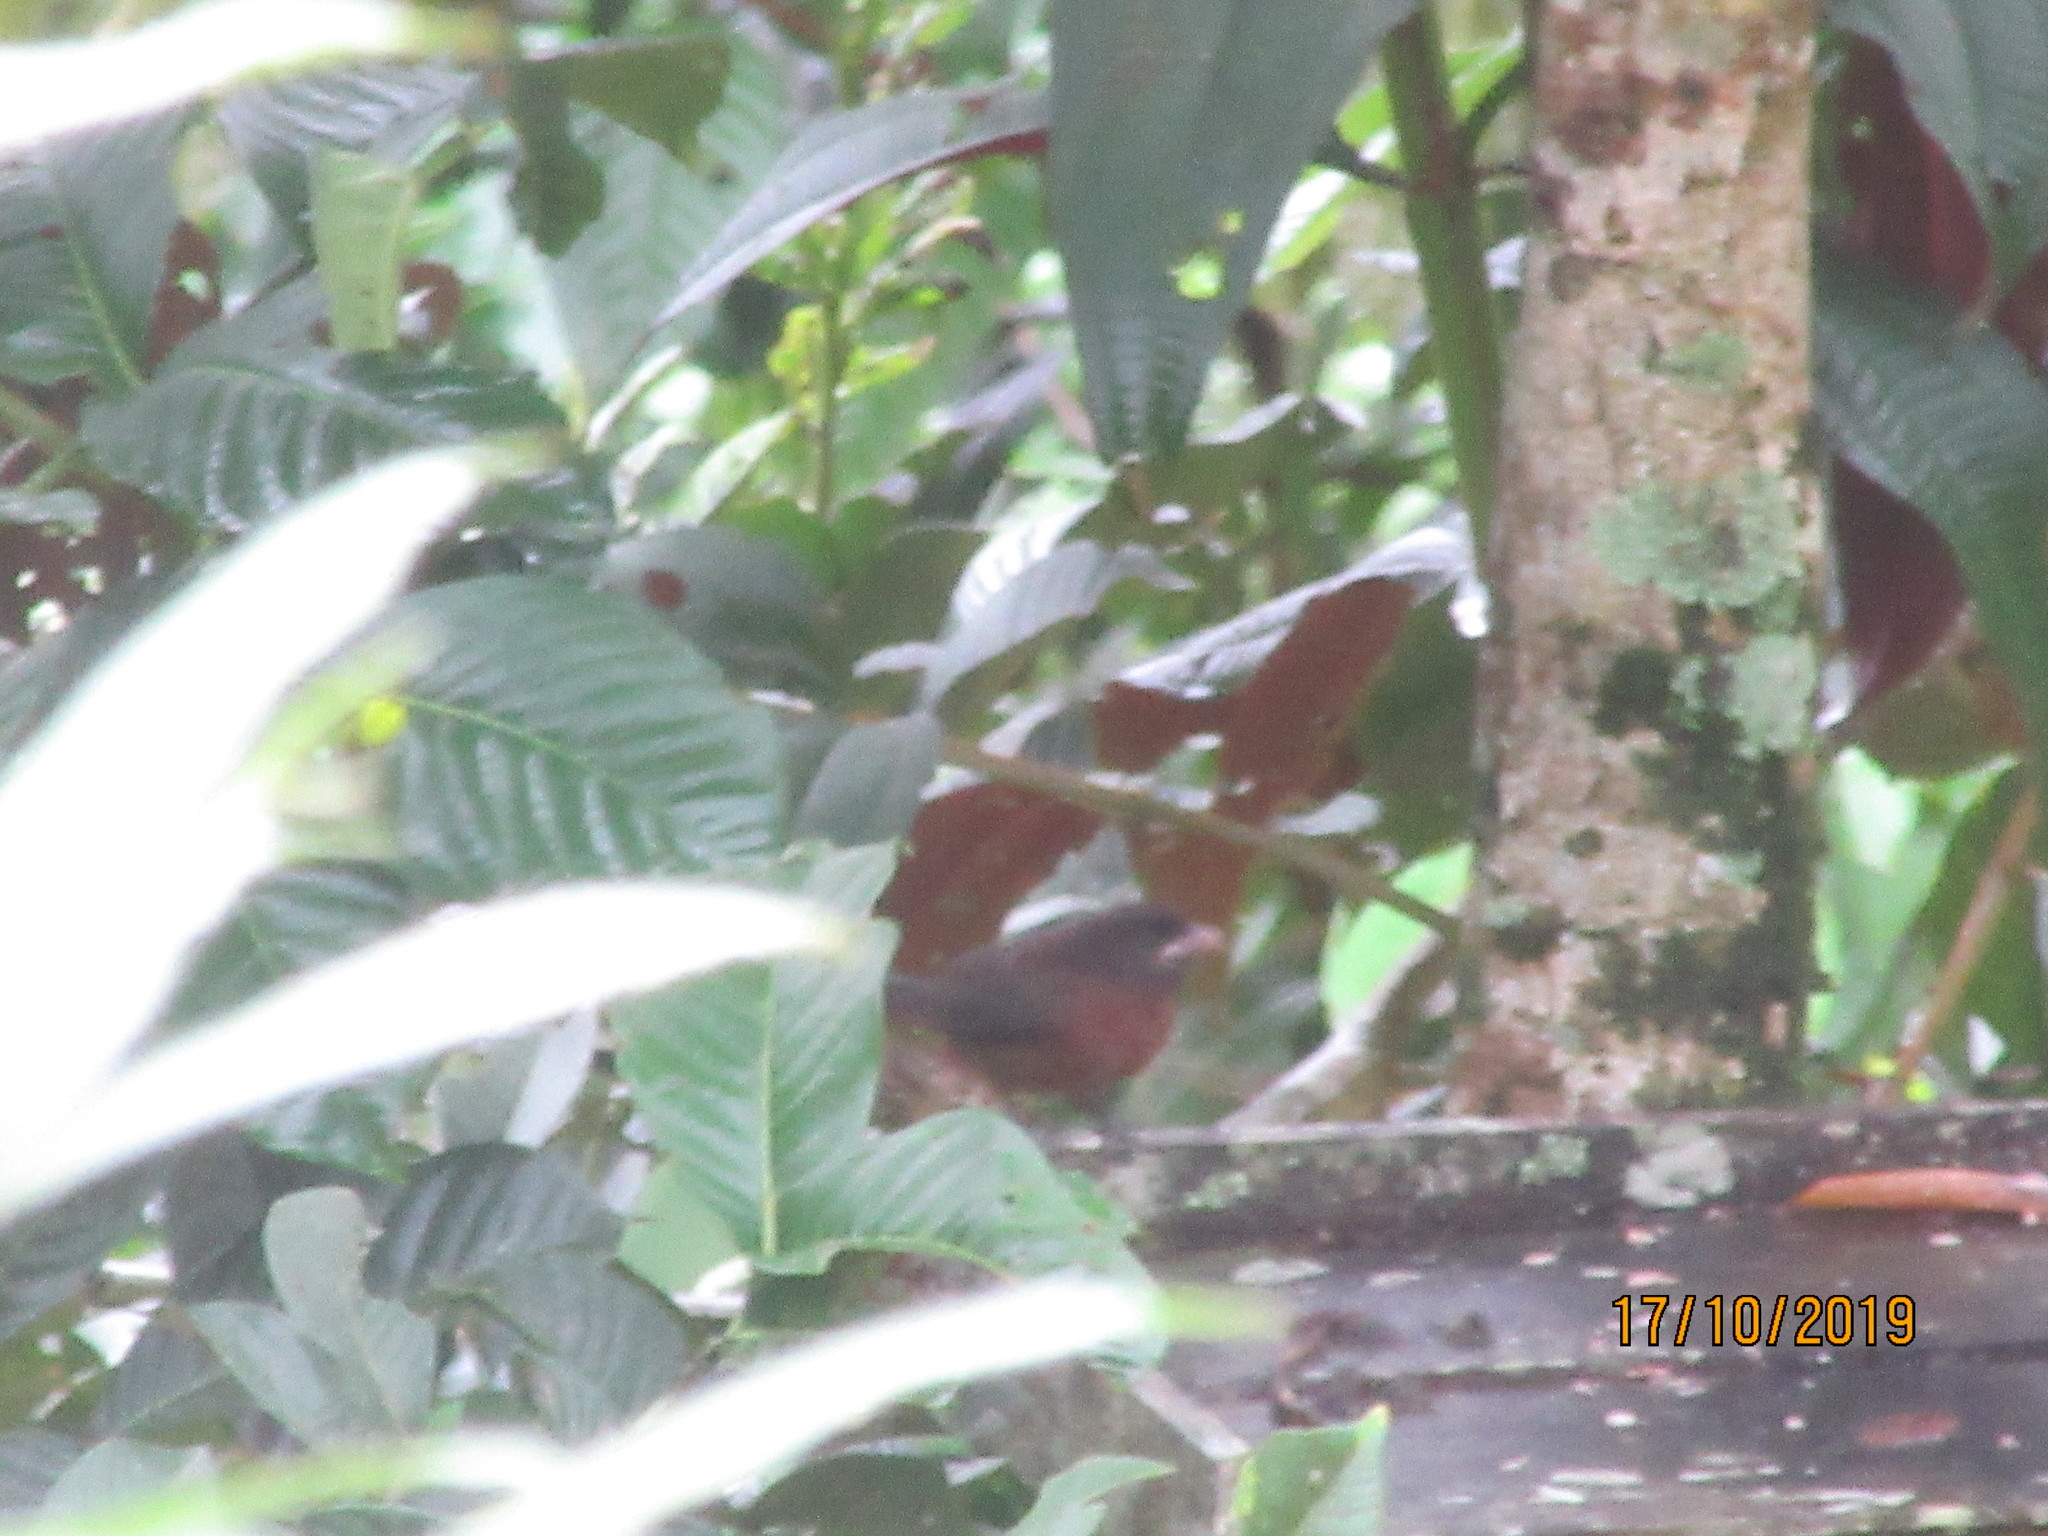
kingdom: Animalia
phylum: Chordata
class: Aves
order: Passeriformes
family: Thraupidae
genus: Ramphocelus
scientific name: Ramphocelus carbo
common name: Silver-beaked tanager
